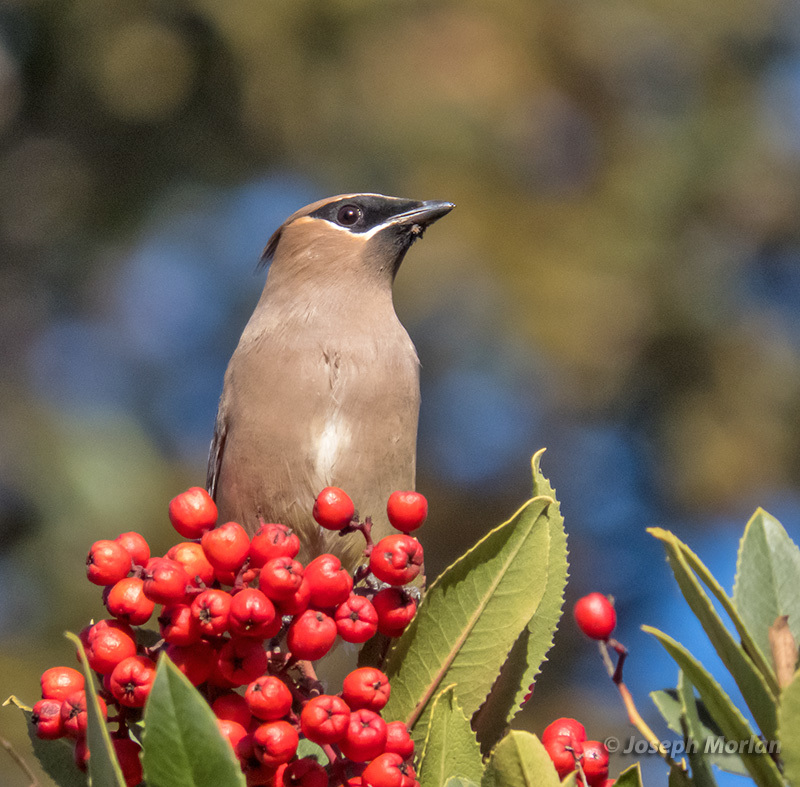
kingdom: Animalia
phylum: Chordata
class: Aves
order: Passeriformes
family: Bombycillidae
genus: Bombycilla
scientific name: Bombycilla cedrorum
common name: Cedar waxwing
